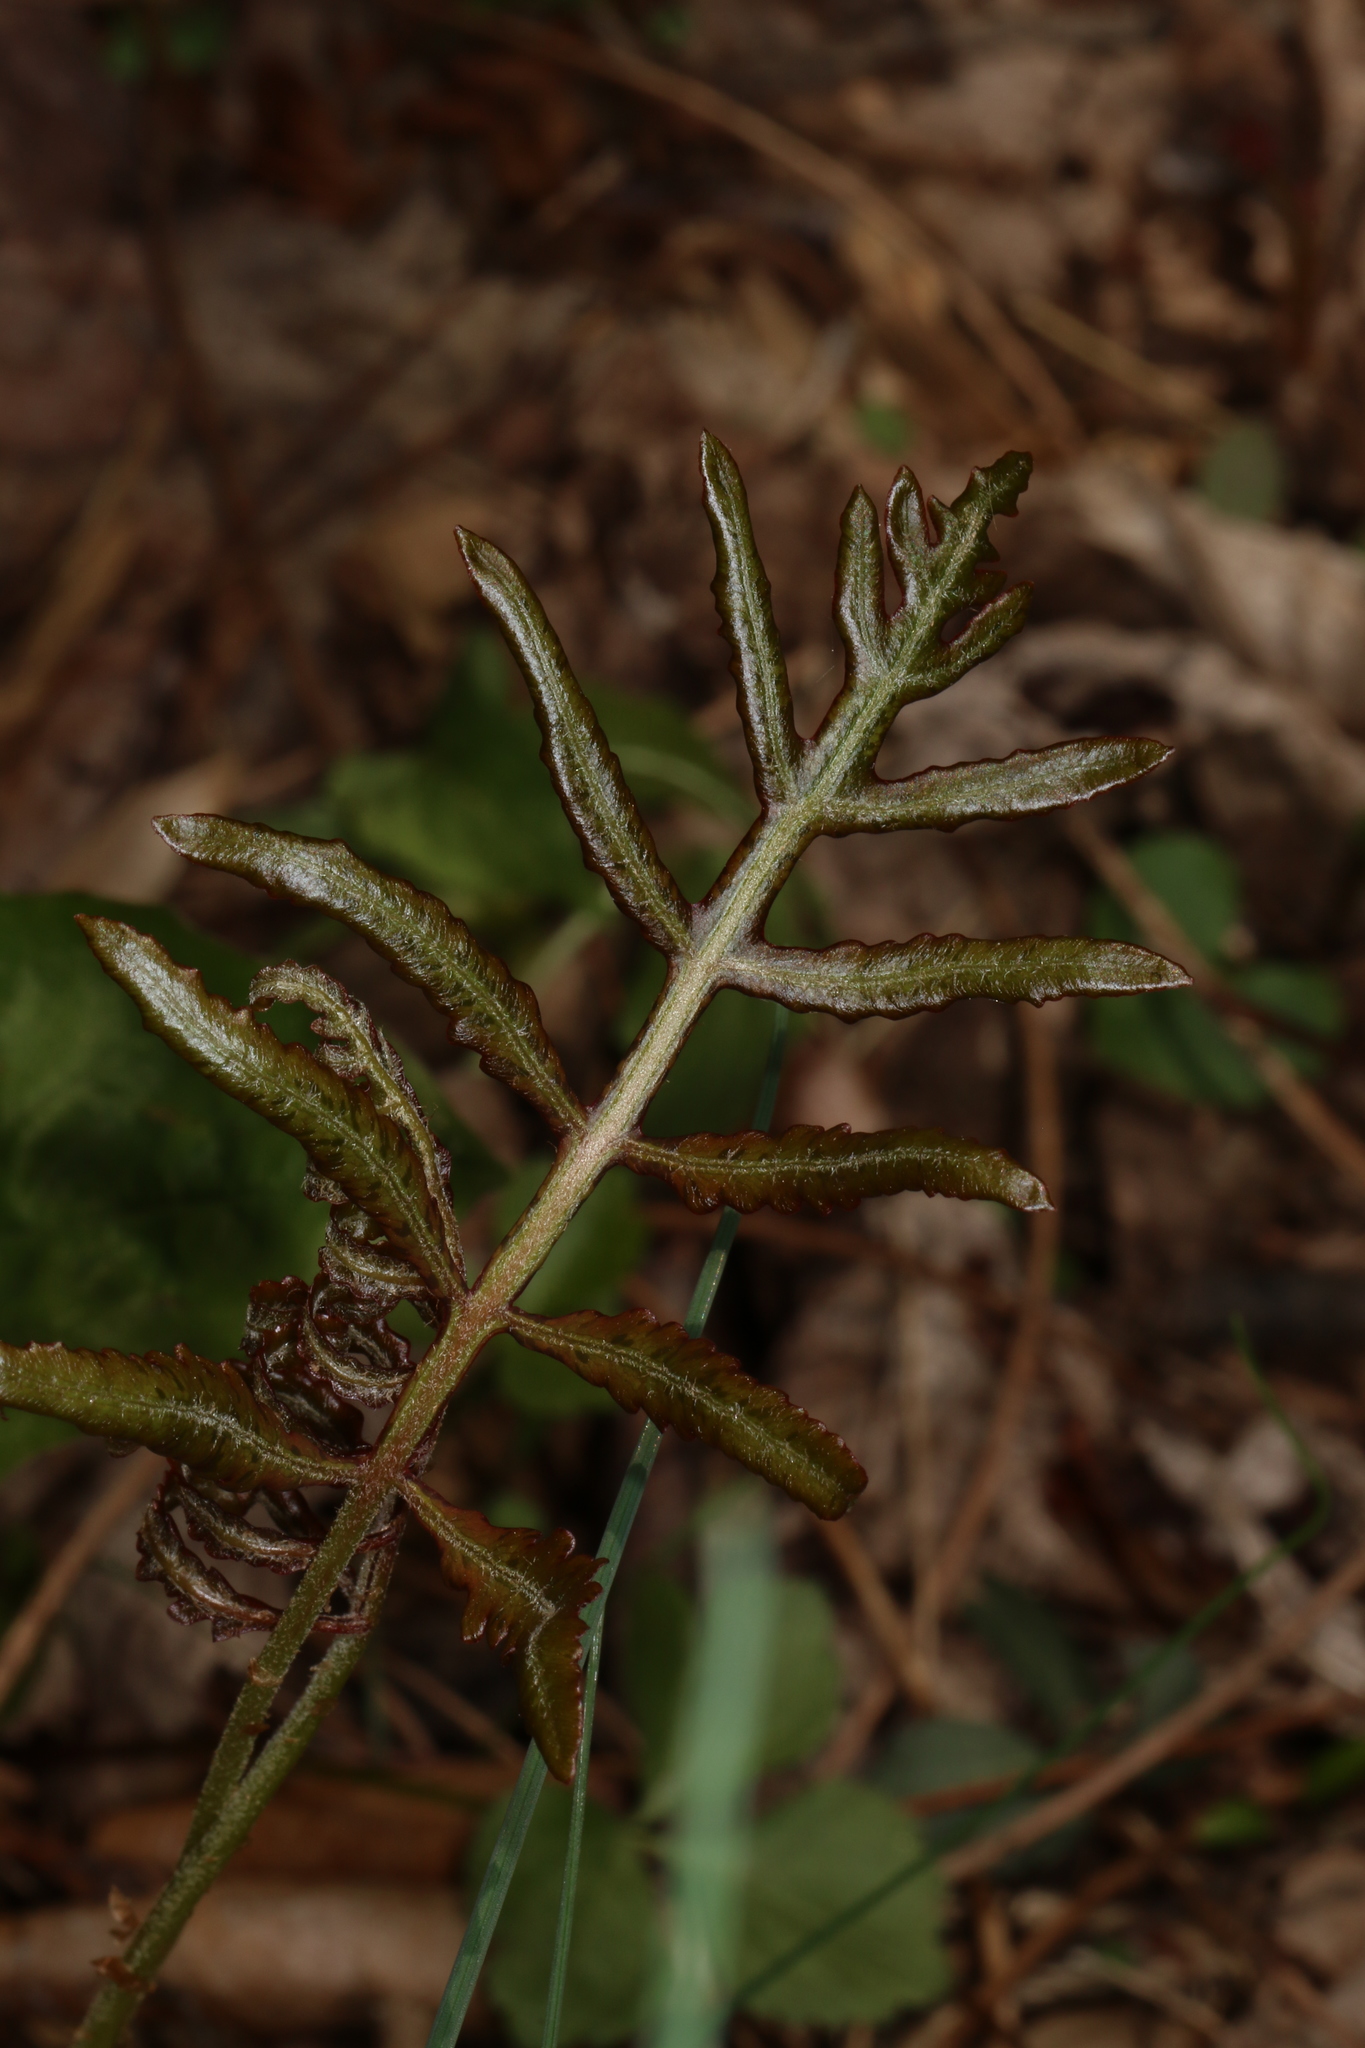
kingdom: Plantae
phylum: Tracheophyta
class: Polypodiopsida
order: Polypodiales
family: Onocleaceae
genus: Onoclea
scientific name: Onoclea sensibilis
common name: Sensitive fern
